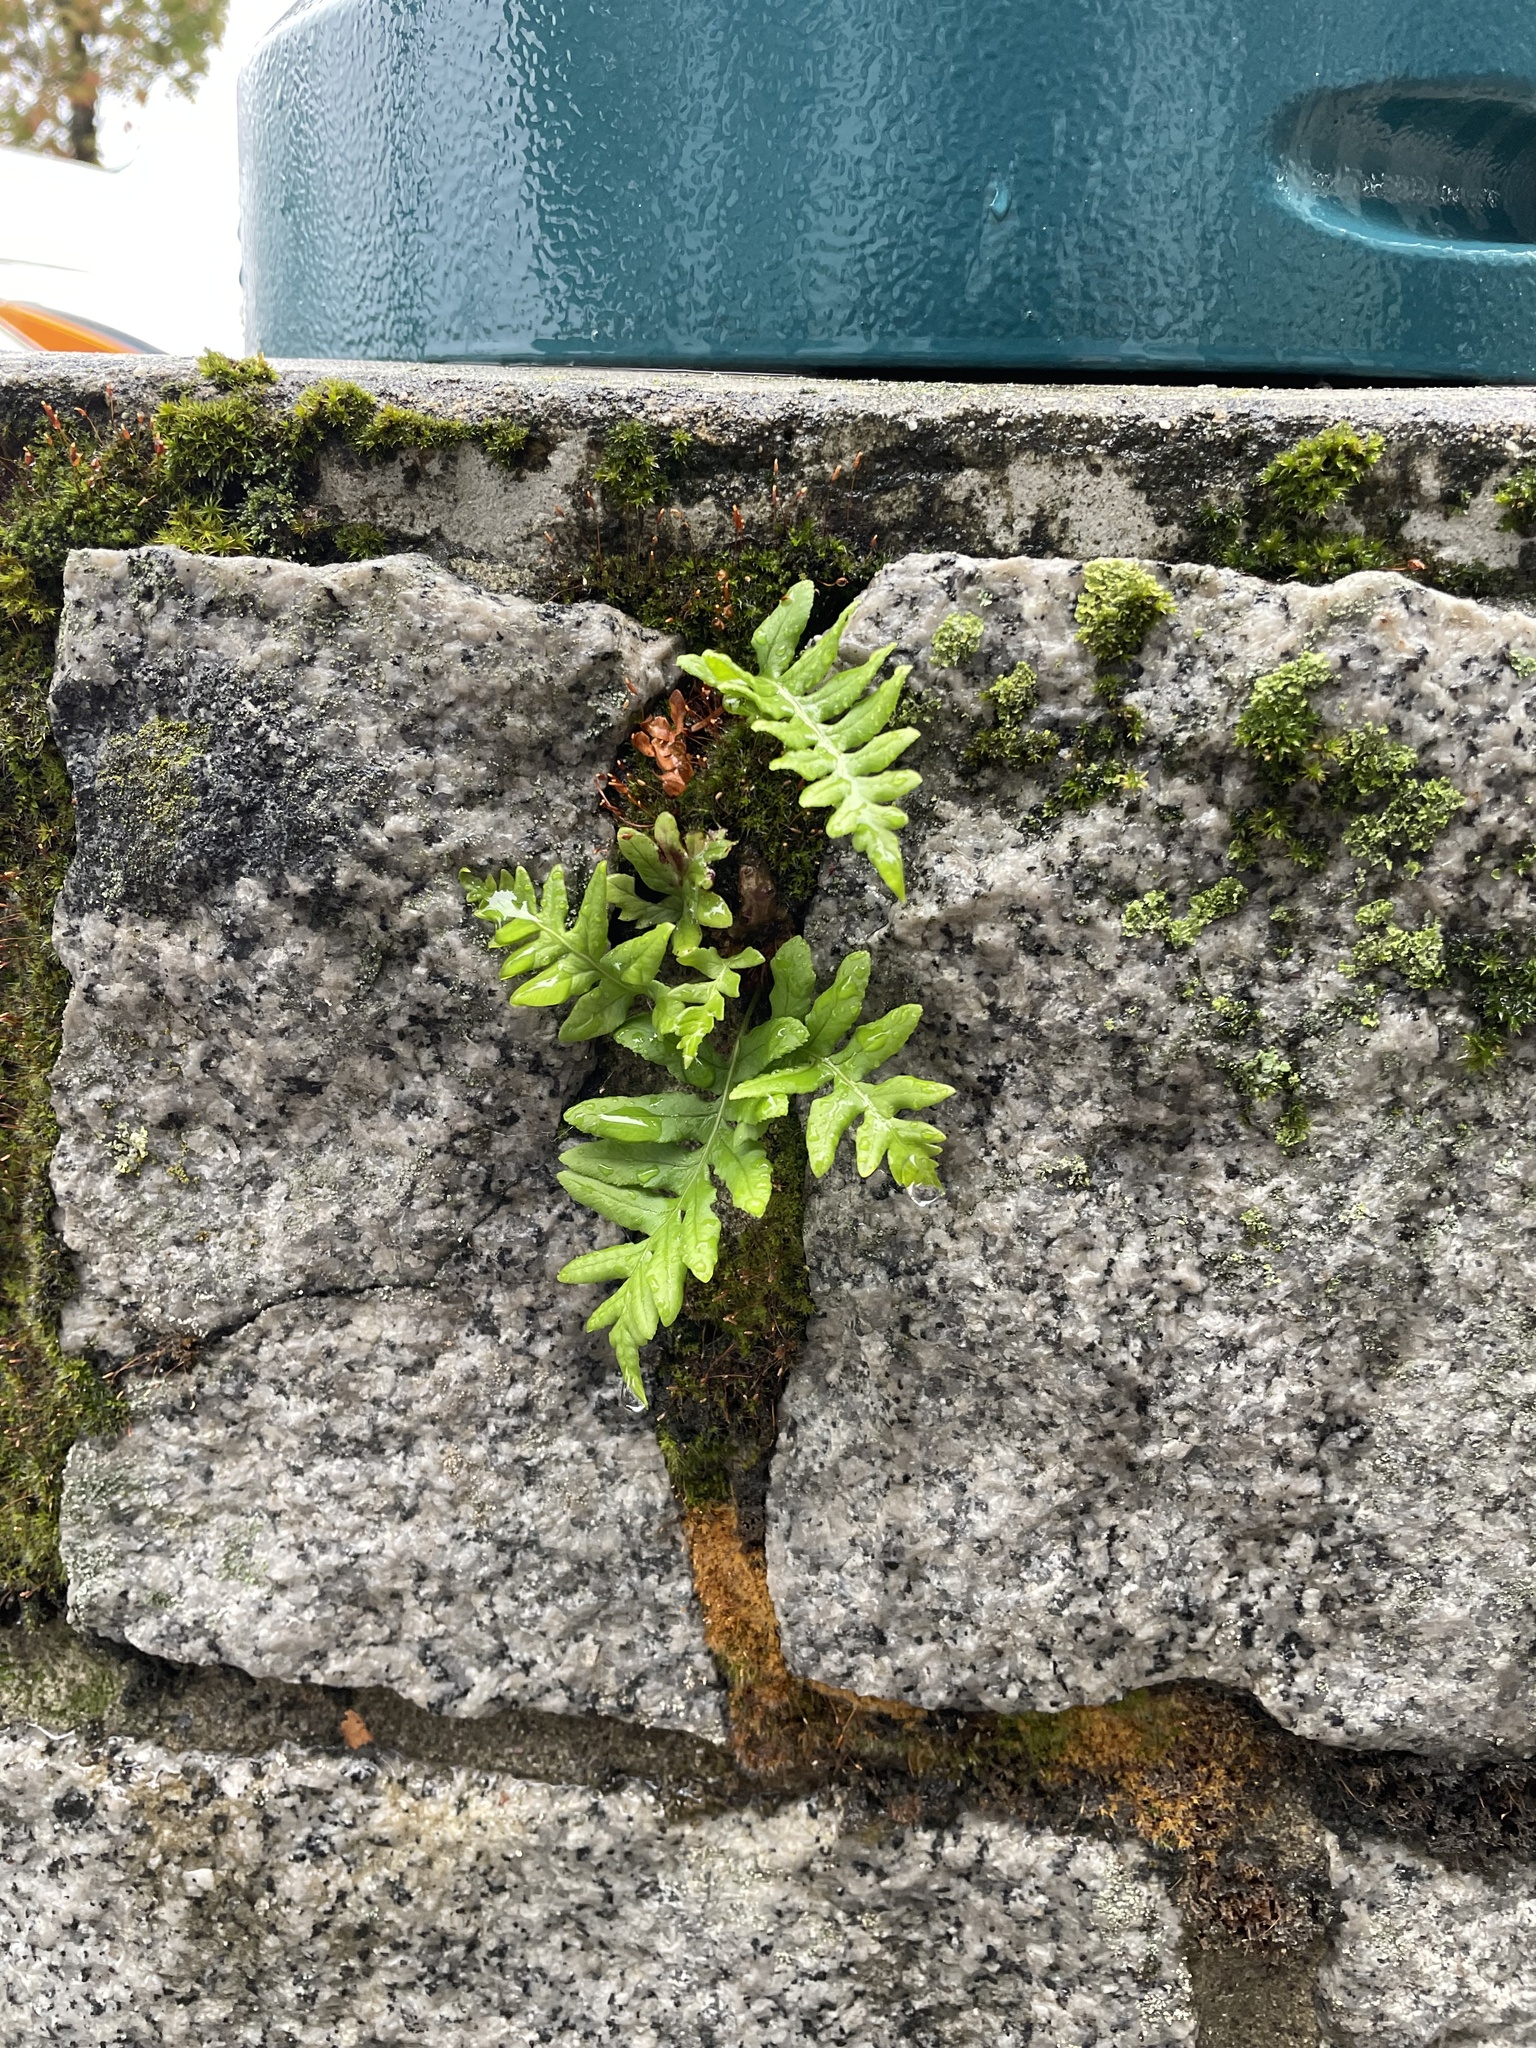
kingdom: Plantae
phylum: Tracheophyta
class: Polypodiopsida
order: Polypodiales
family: Polypodiaceae
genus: Polypodium
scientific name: Polypodium glycyrrhiza
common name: Licorice fern
